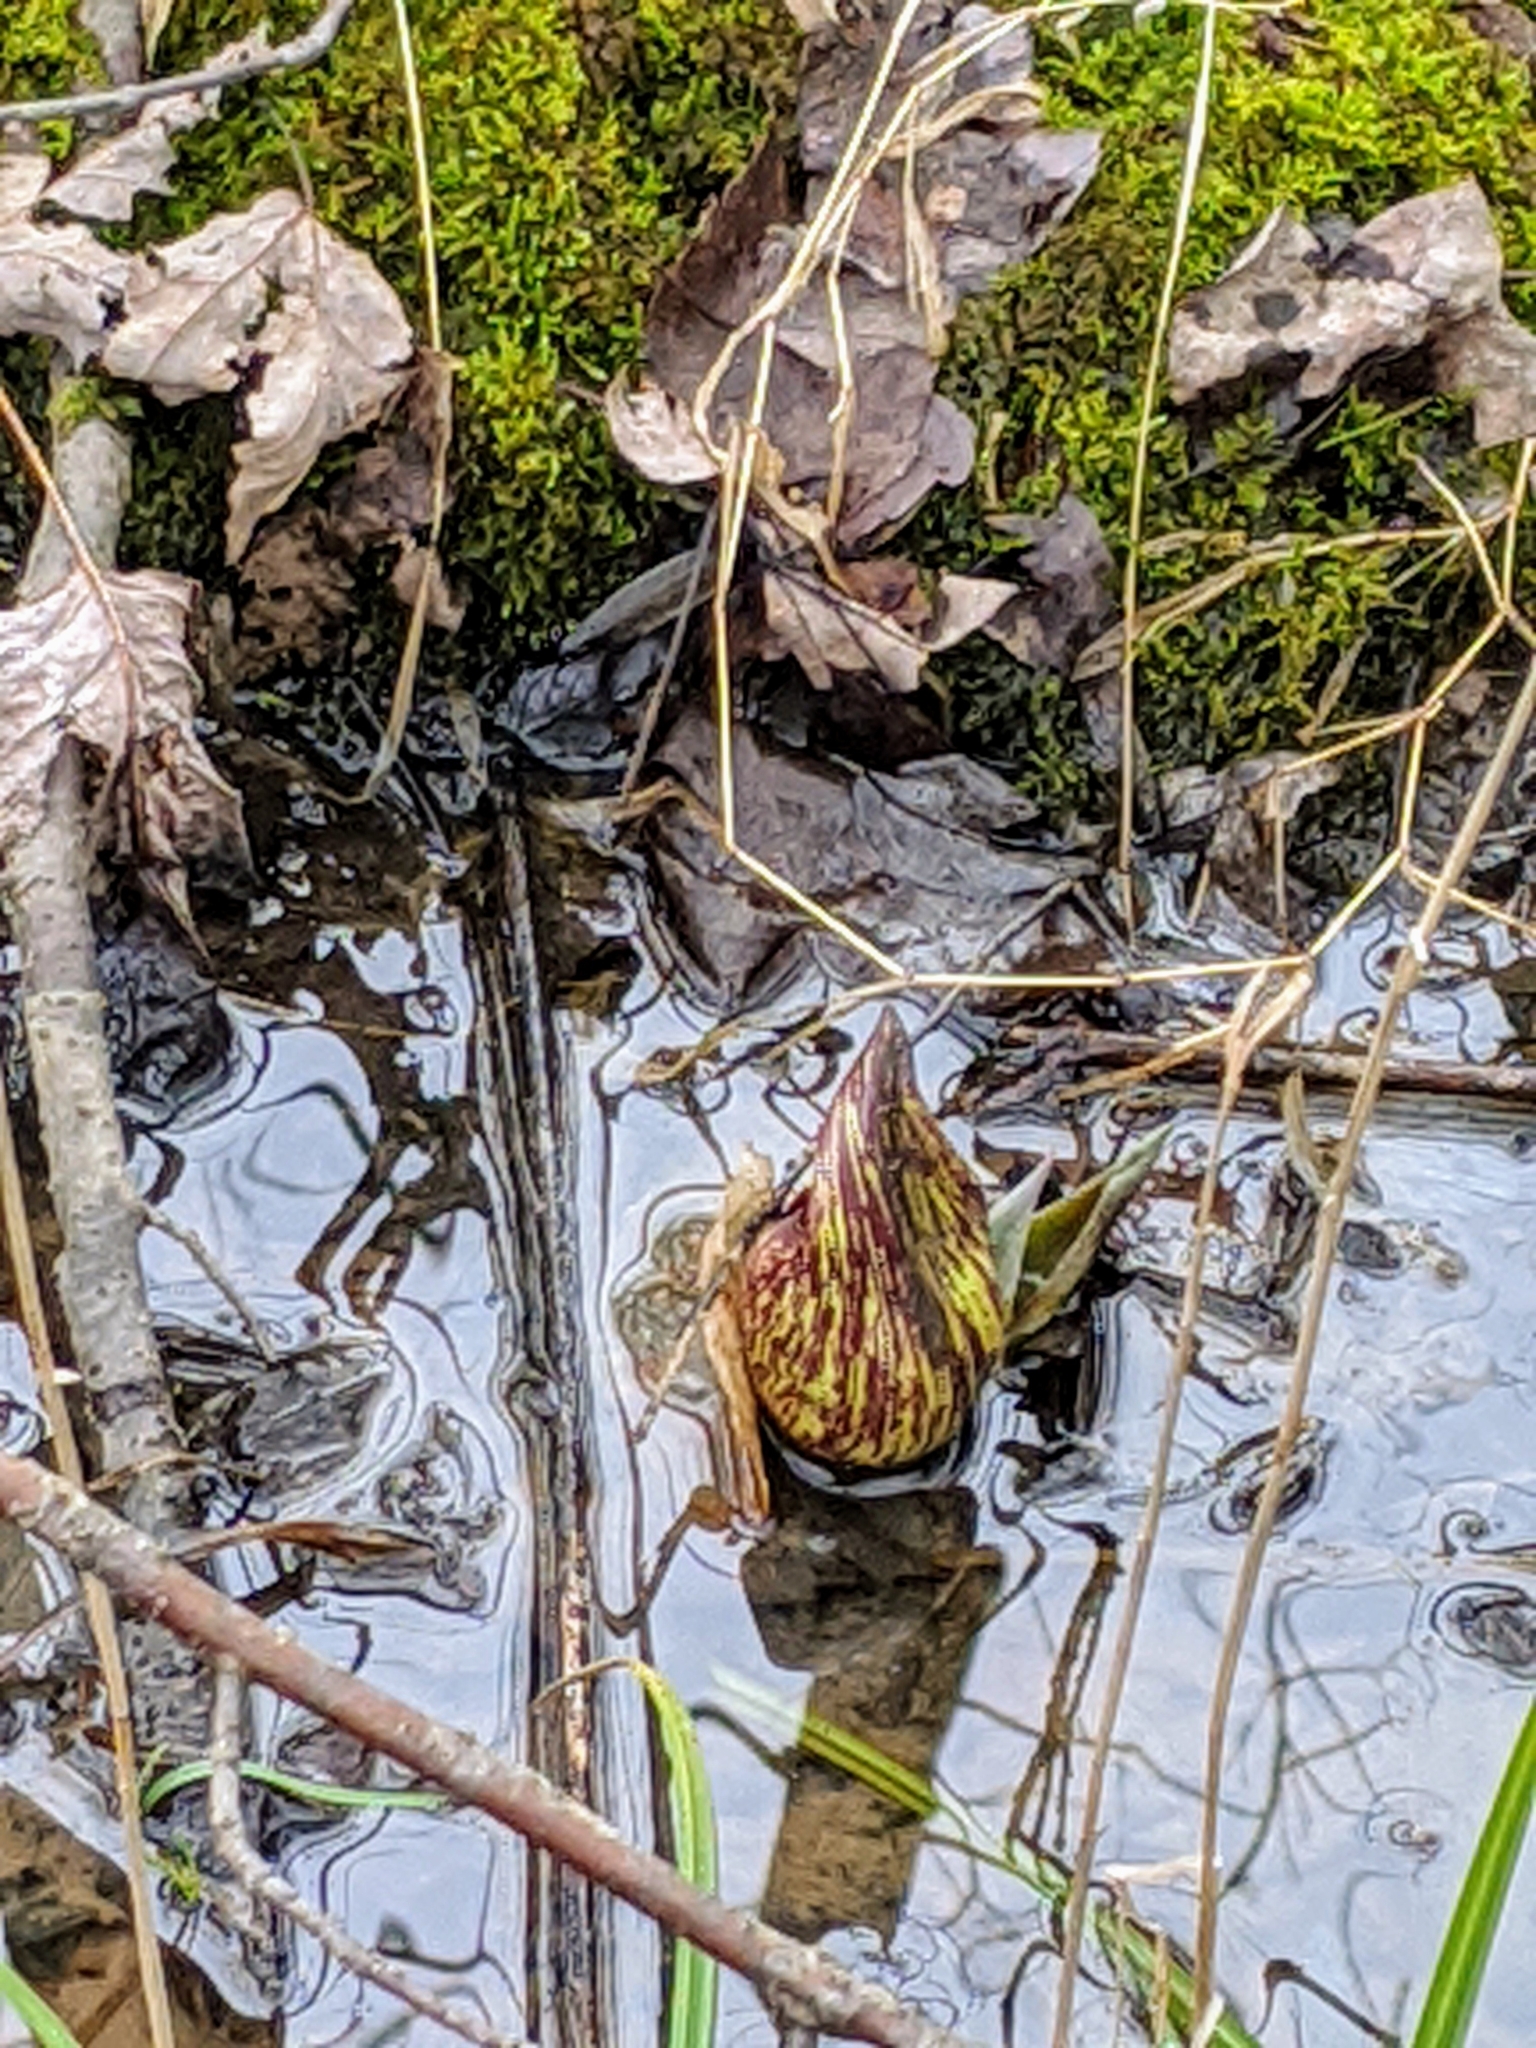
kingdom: Plantae
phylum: Tracheophyta
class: Liliopsida
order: Alismatales
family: Araceae
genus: Symplocarpus
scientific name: Symplocarpus foetidus
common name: Eastern skunk cabbage
